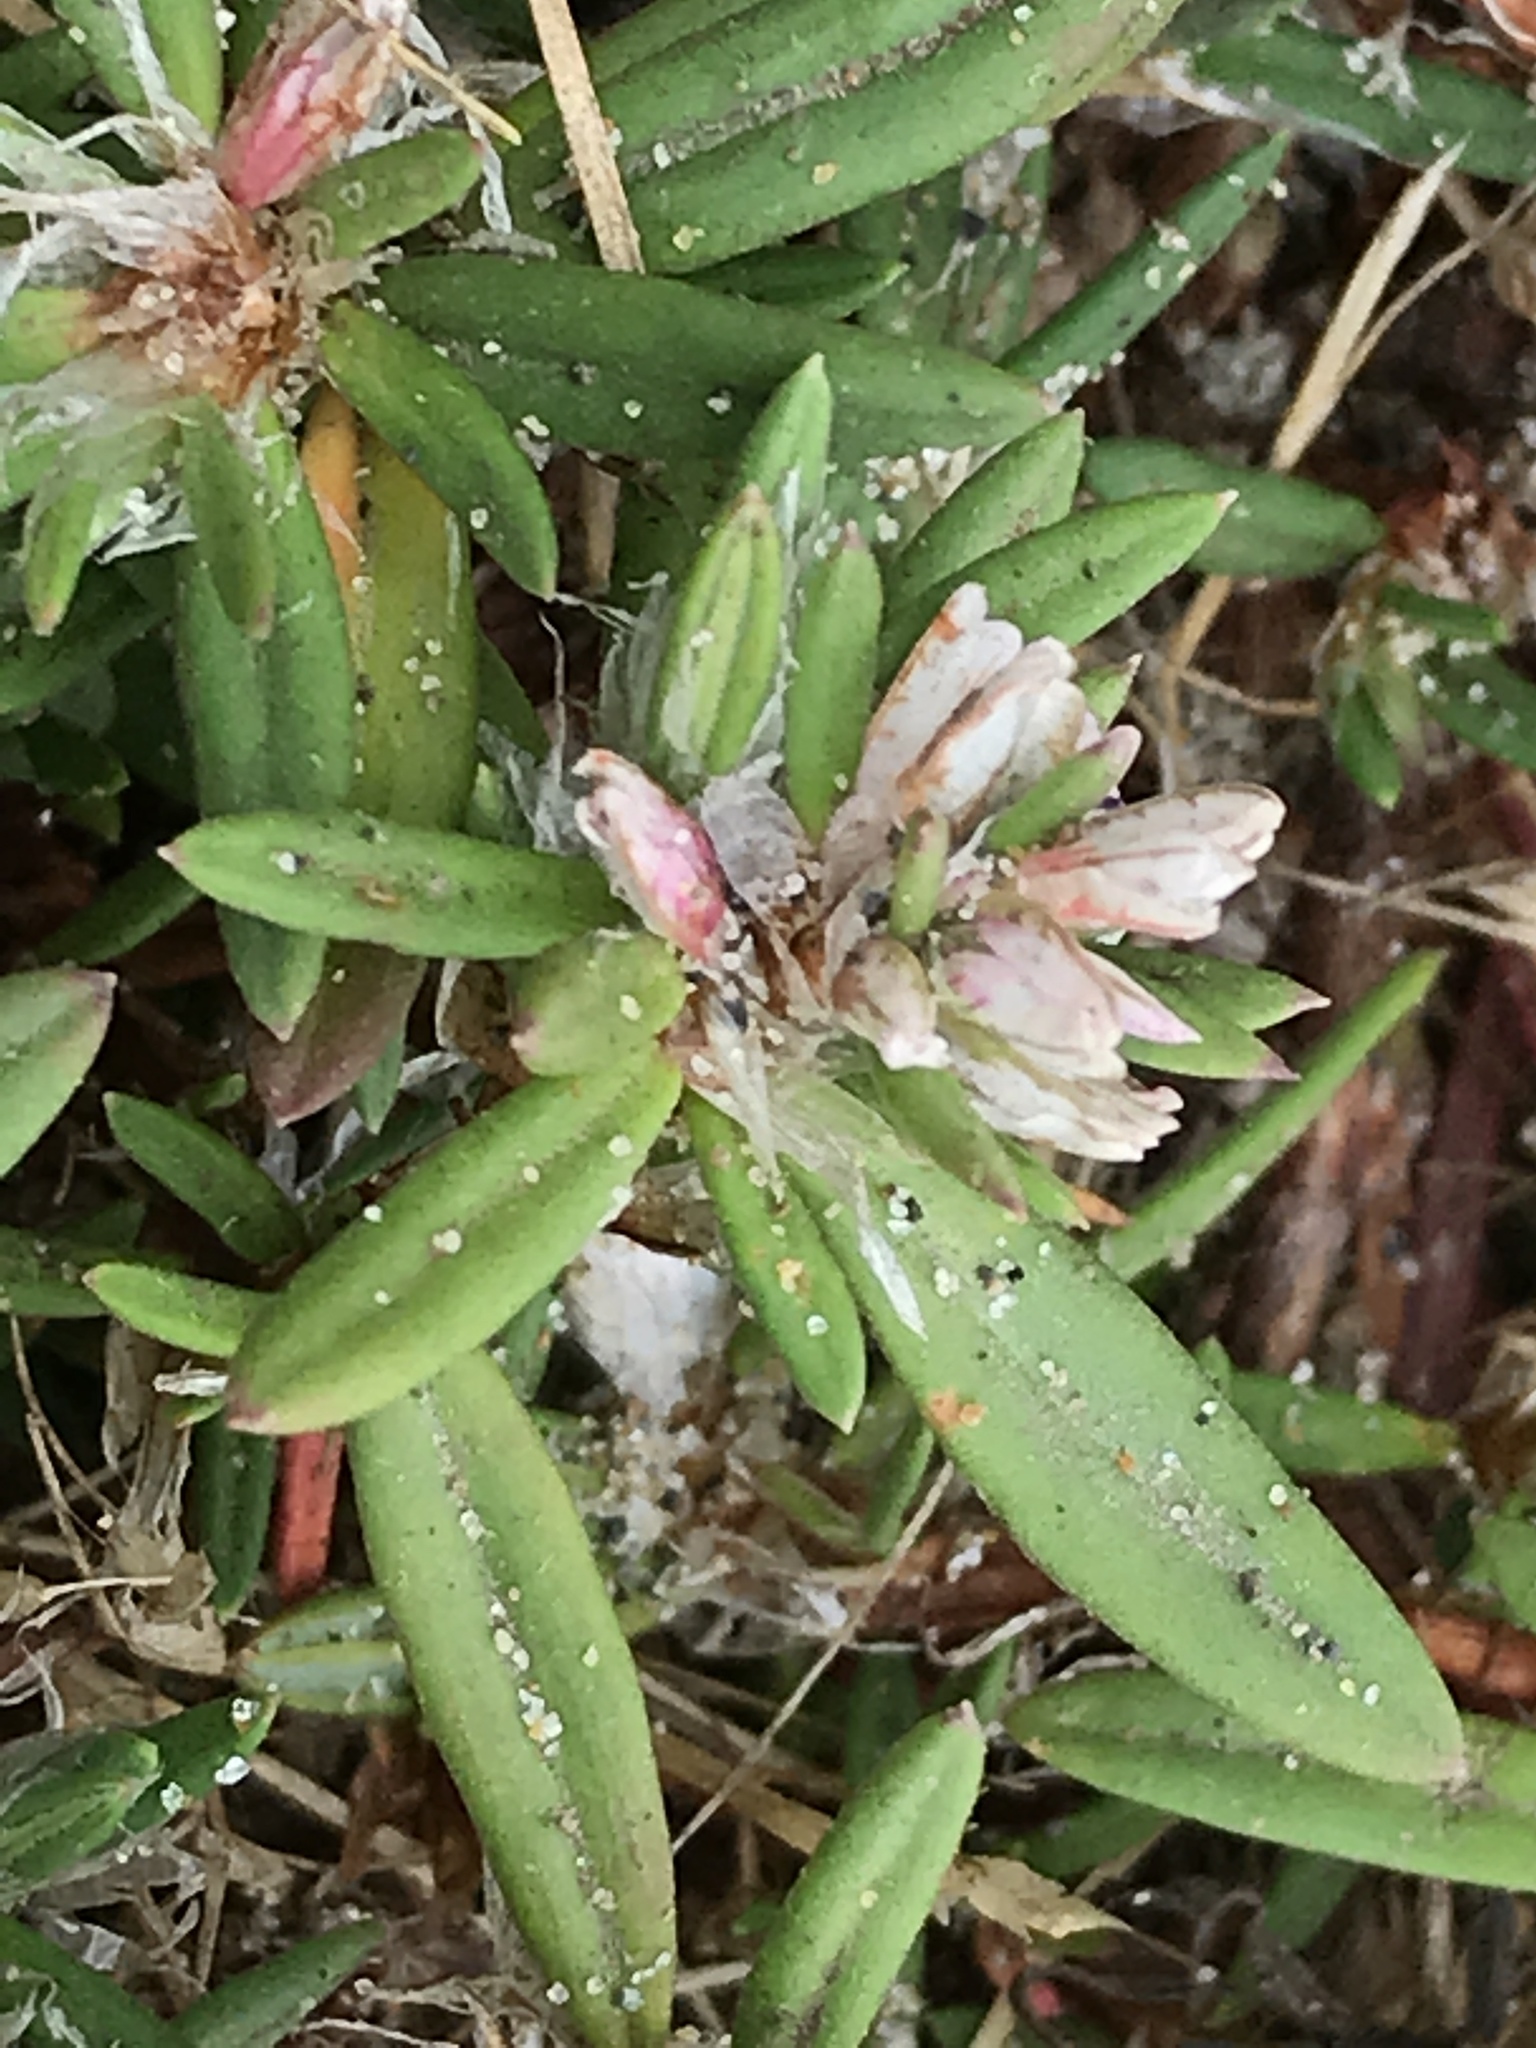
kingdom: Plantae
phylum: Tracheophyta
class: Magnoliopsida
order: Caryophyllales
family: Polygonaceae
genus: Polygonum
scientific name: Polygonum paronychia
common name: Dune knotweed
